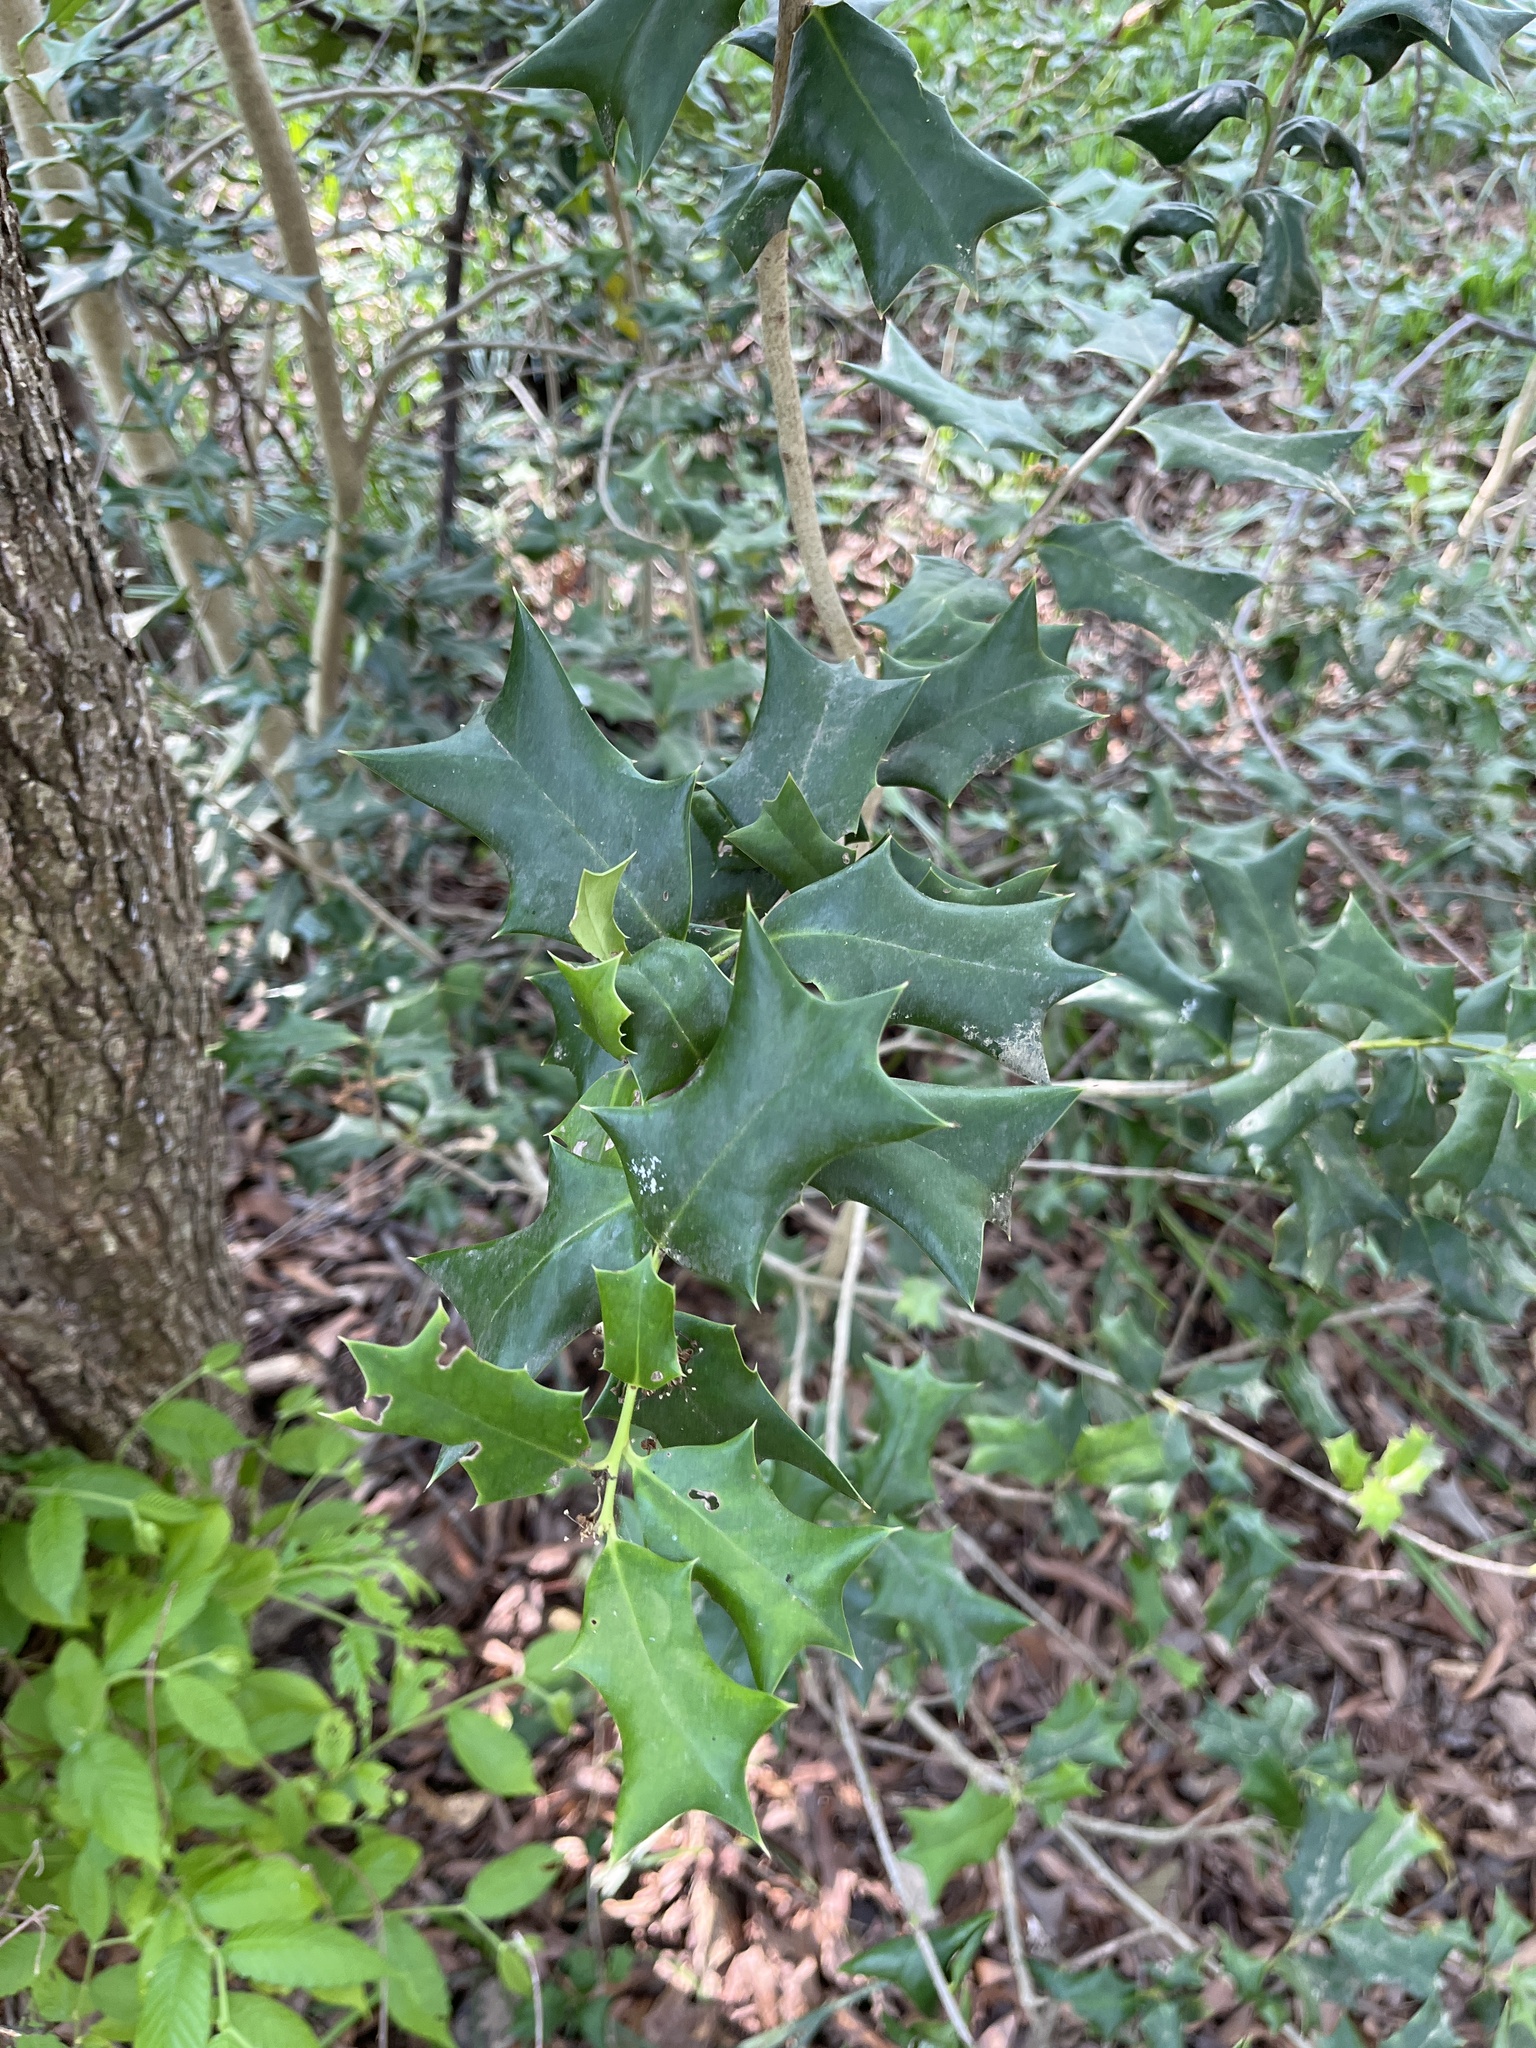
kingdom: Plantae
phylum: Tracheophyta
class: Magnoliopsida
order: Aquifoliales
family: Aquifoliaceae
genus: Ilex
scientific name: Ilex cornuta
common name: Chinese holly
